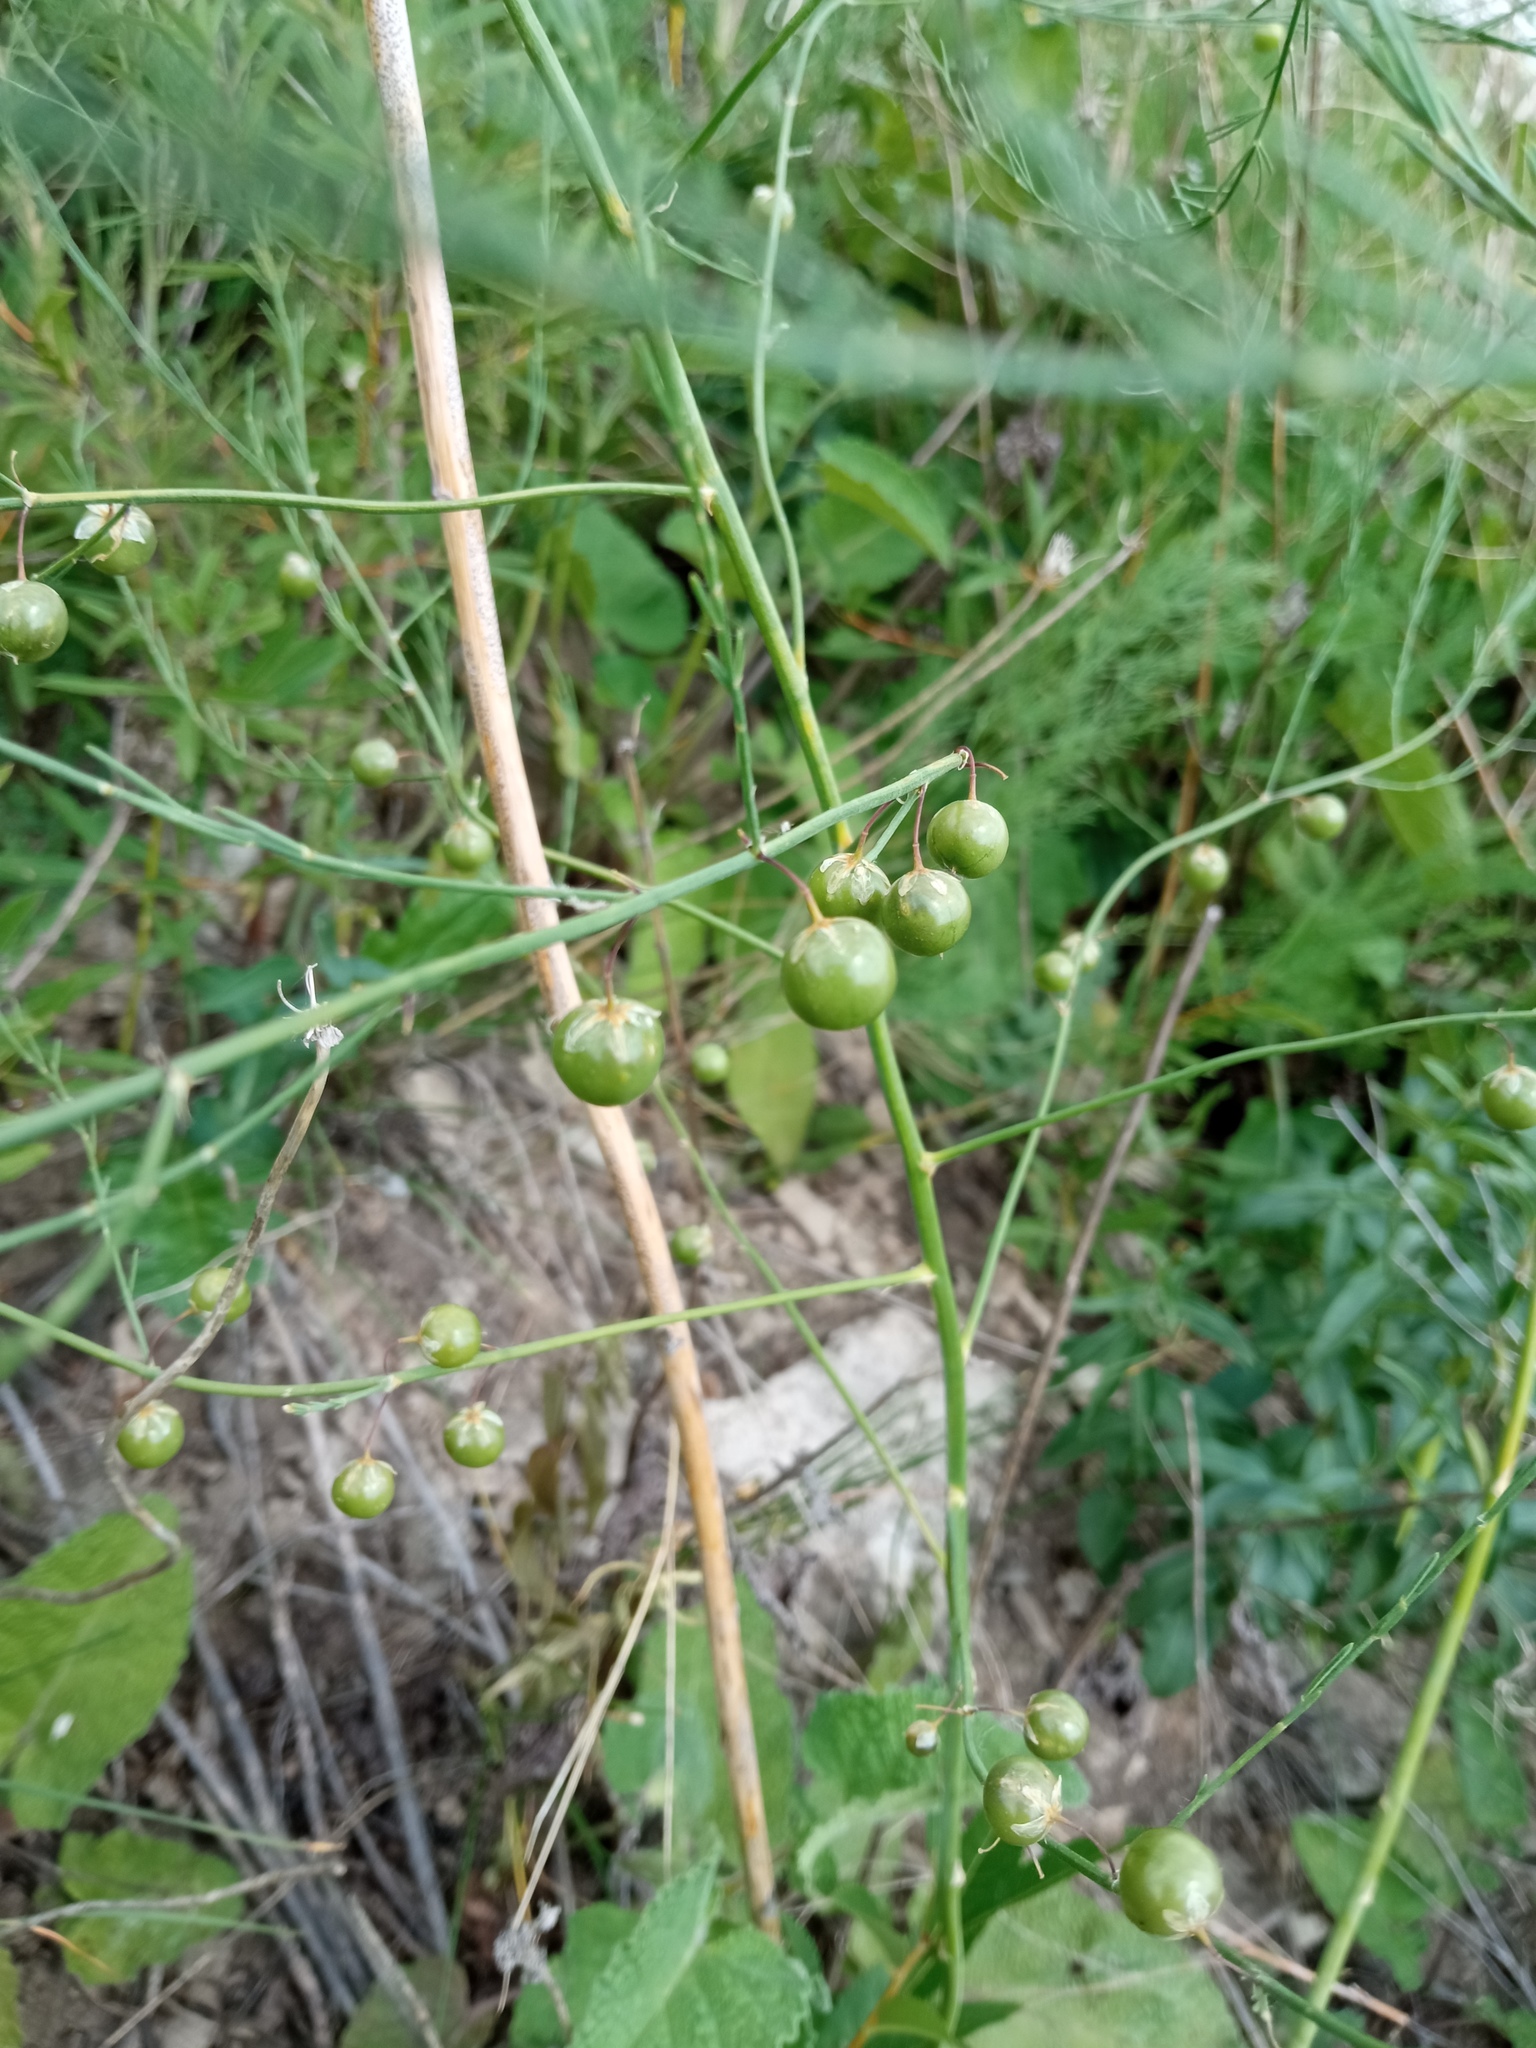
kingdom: Plantae
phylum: Tracheophyta
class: Liliopsida
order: Asparagales
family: Asparagaceae
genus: Asparagus
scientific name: Asparagus officinalis
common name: Garden asparagus
